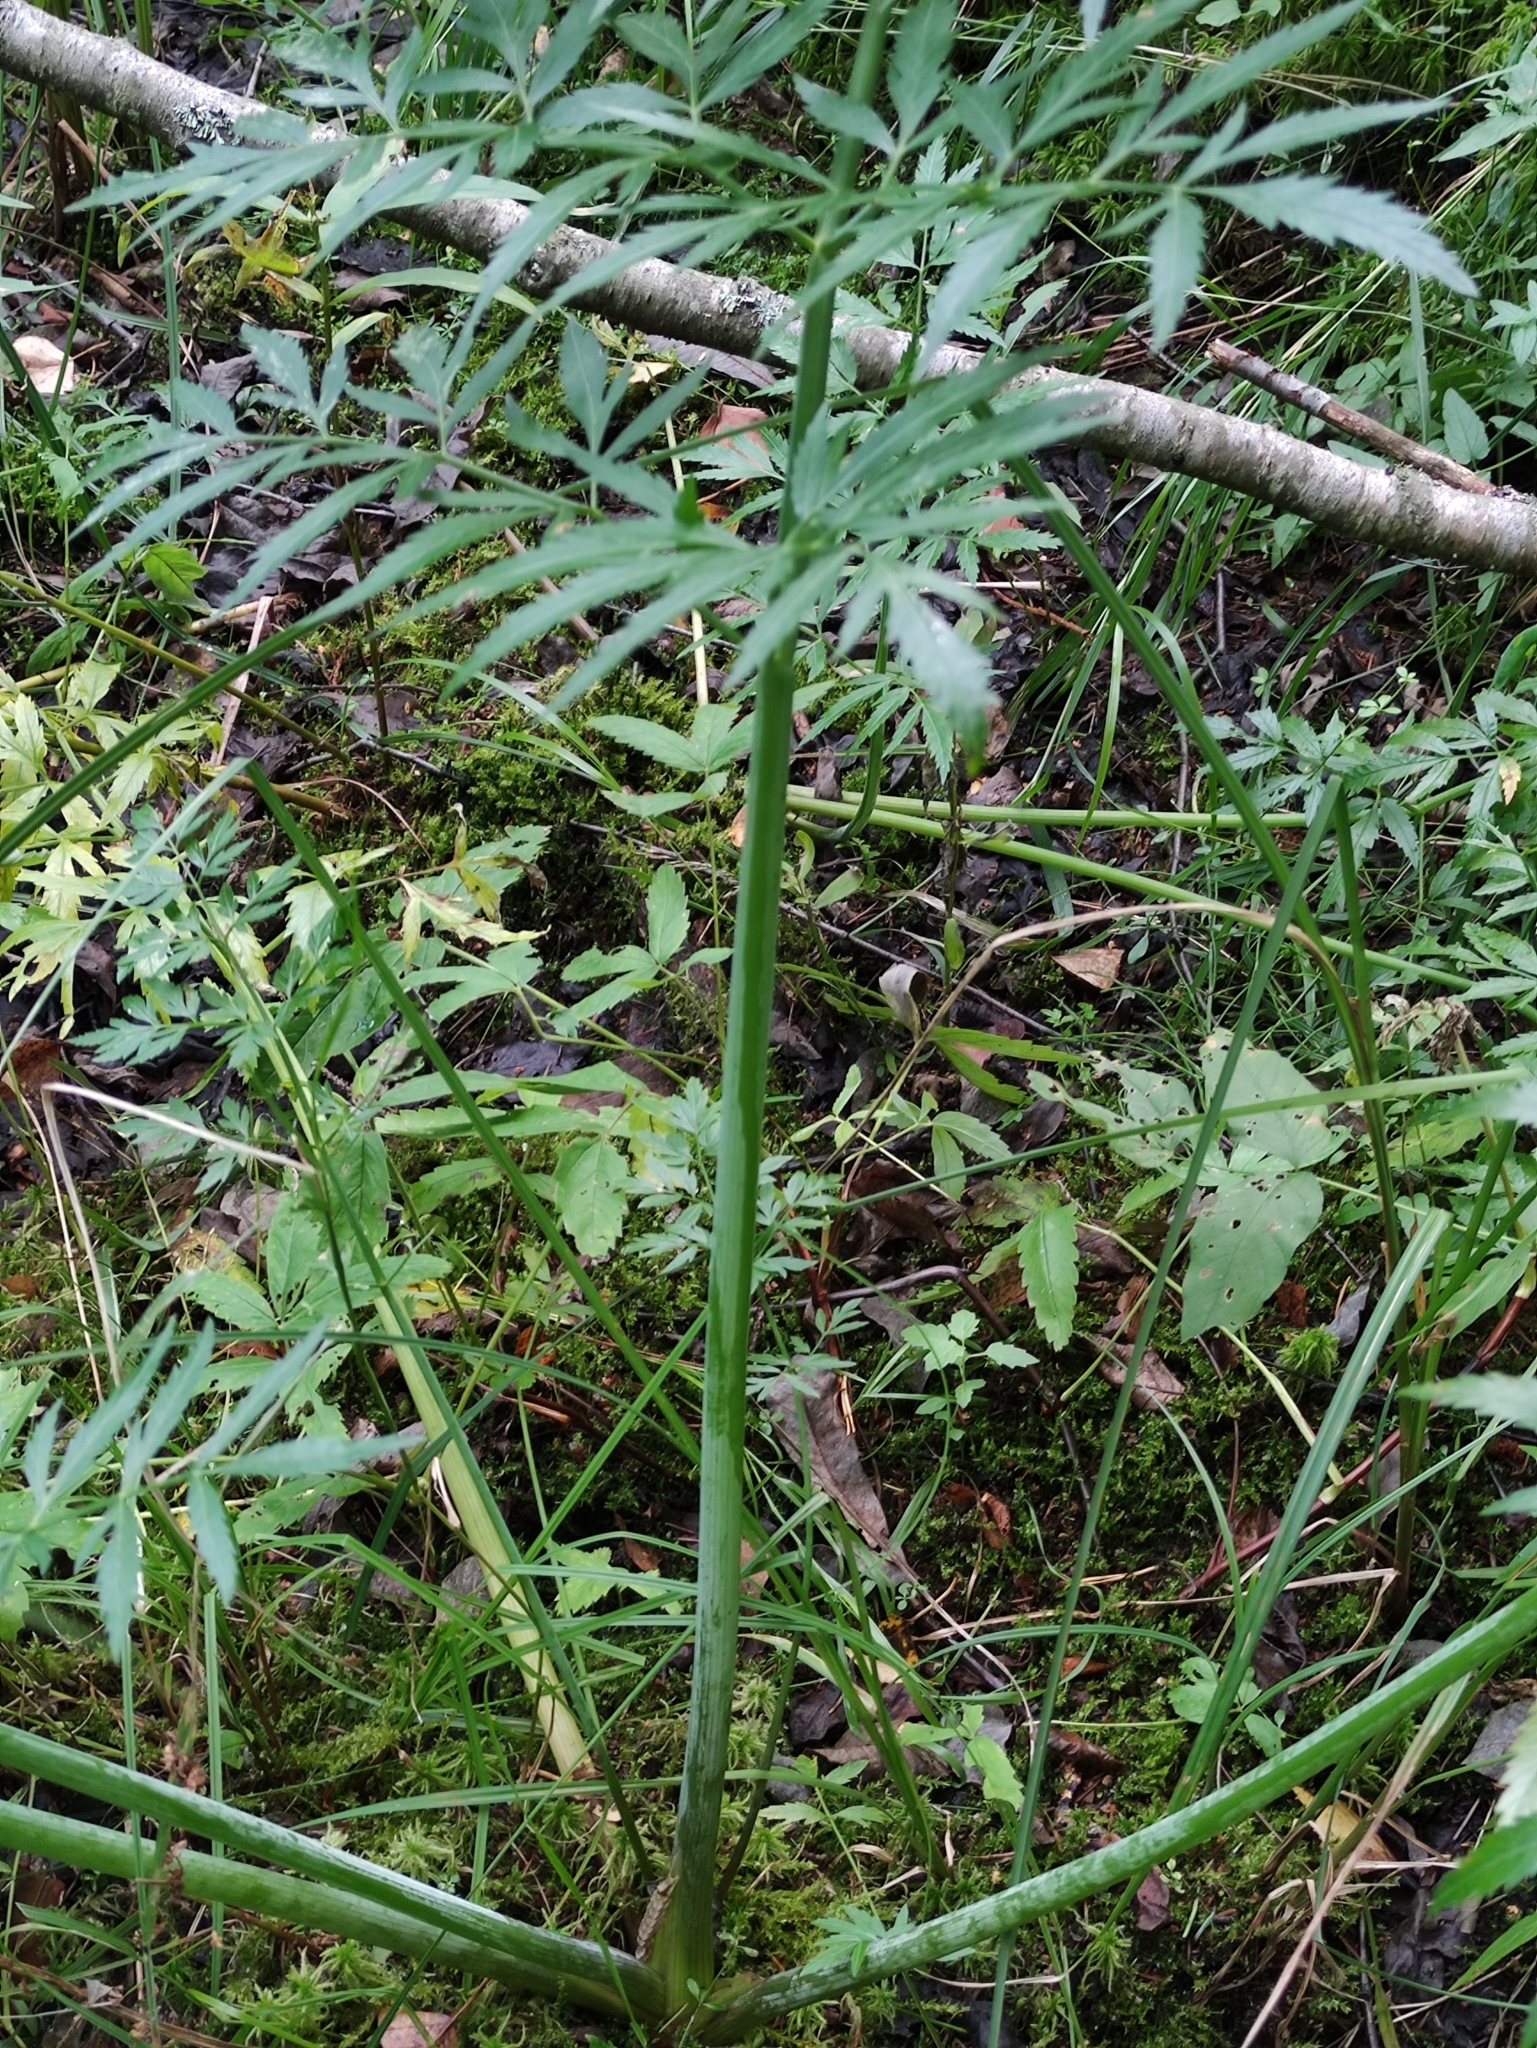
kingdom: Plantae
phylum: Tracheophyta
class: Magnoliopsida
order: Apiales
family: Apiaceae
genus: Cicuta
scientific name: Cicuta virosa
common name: Cowbane
